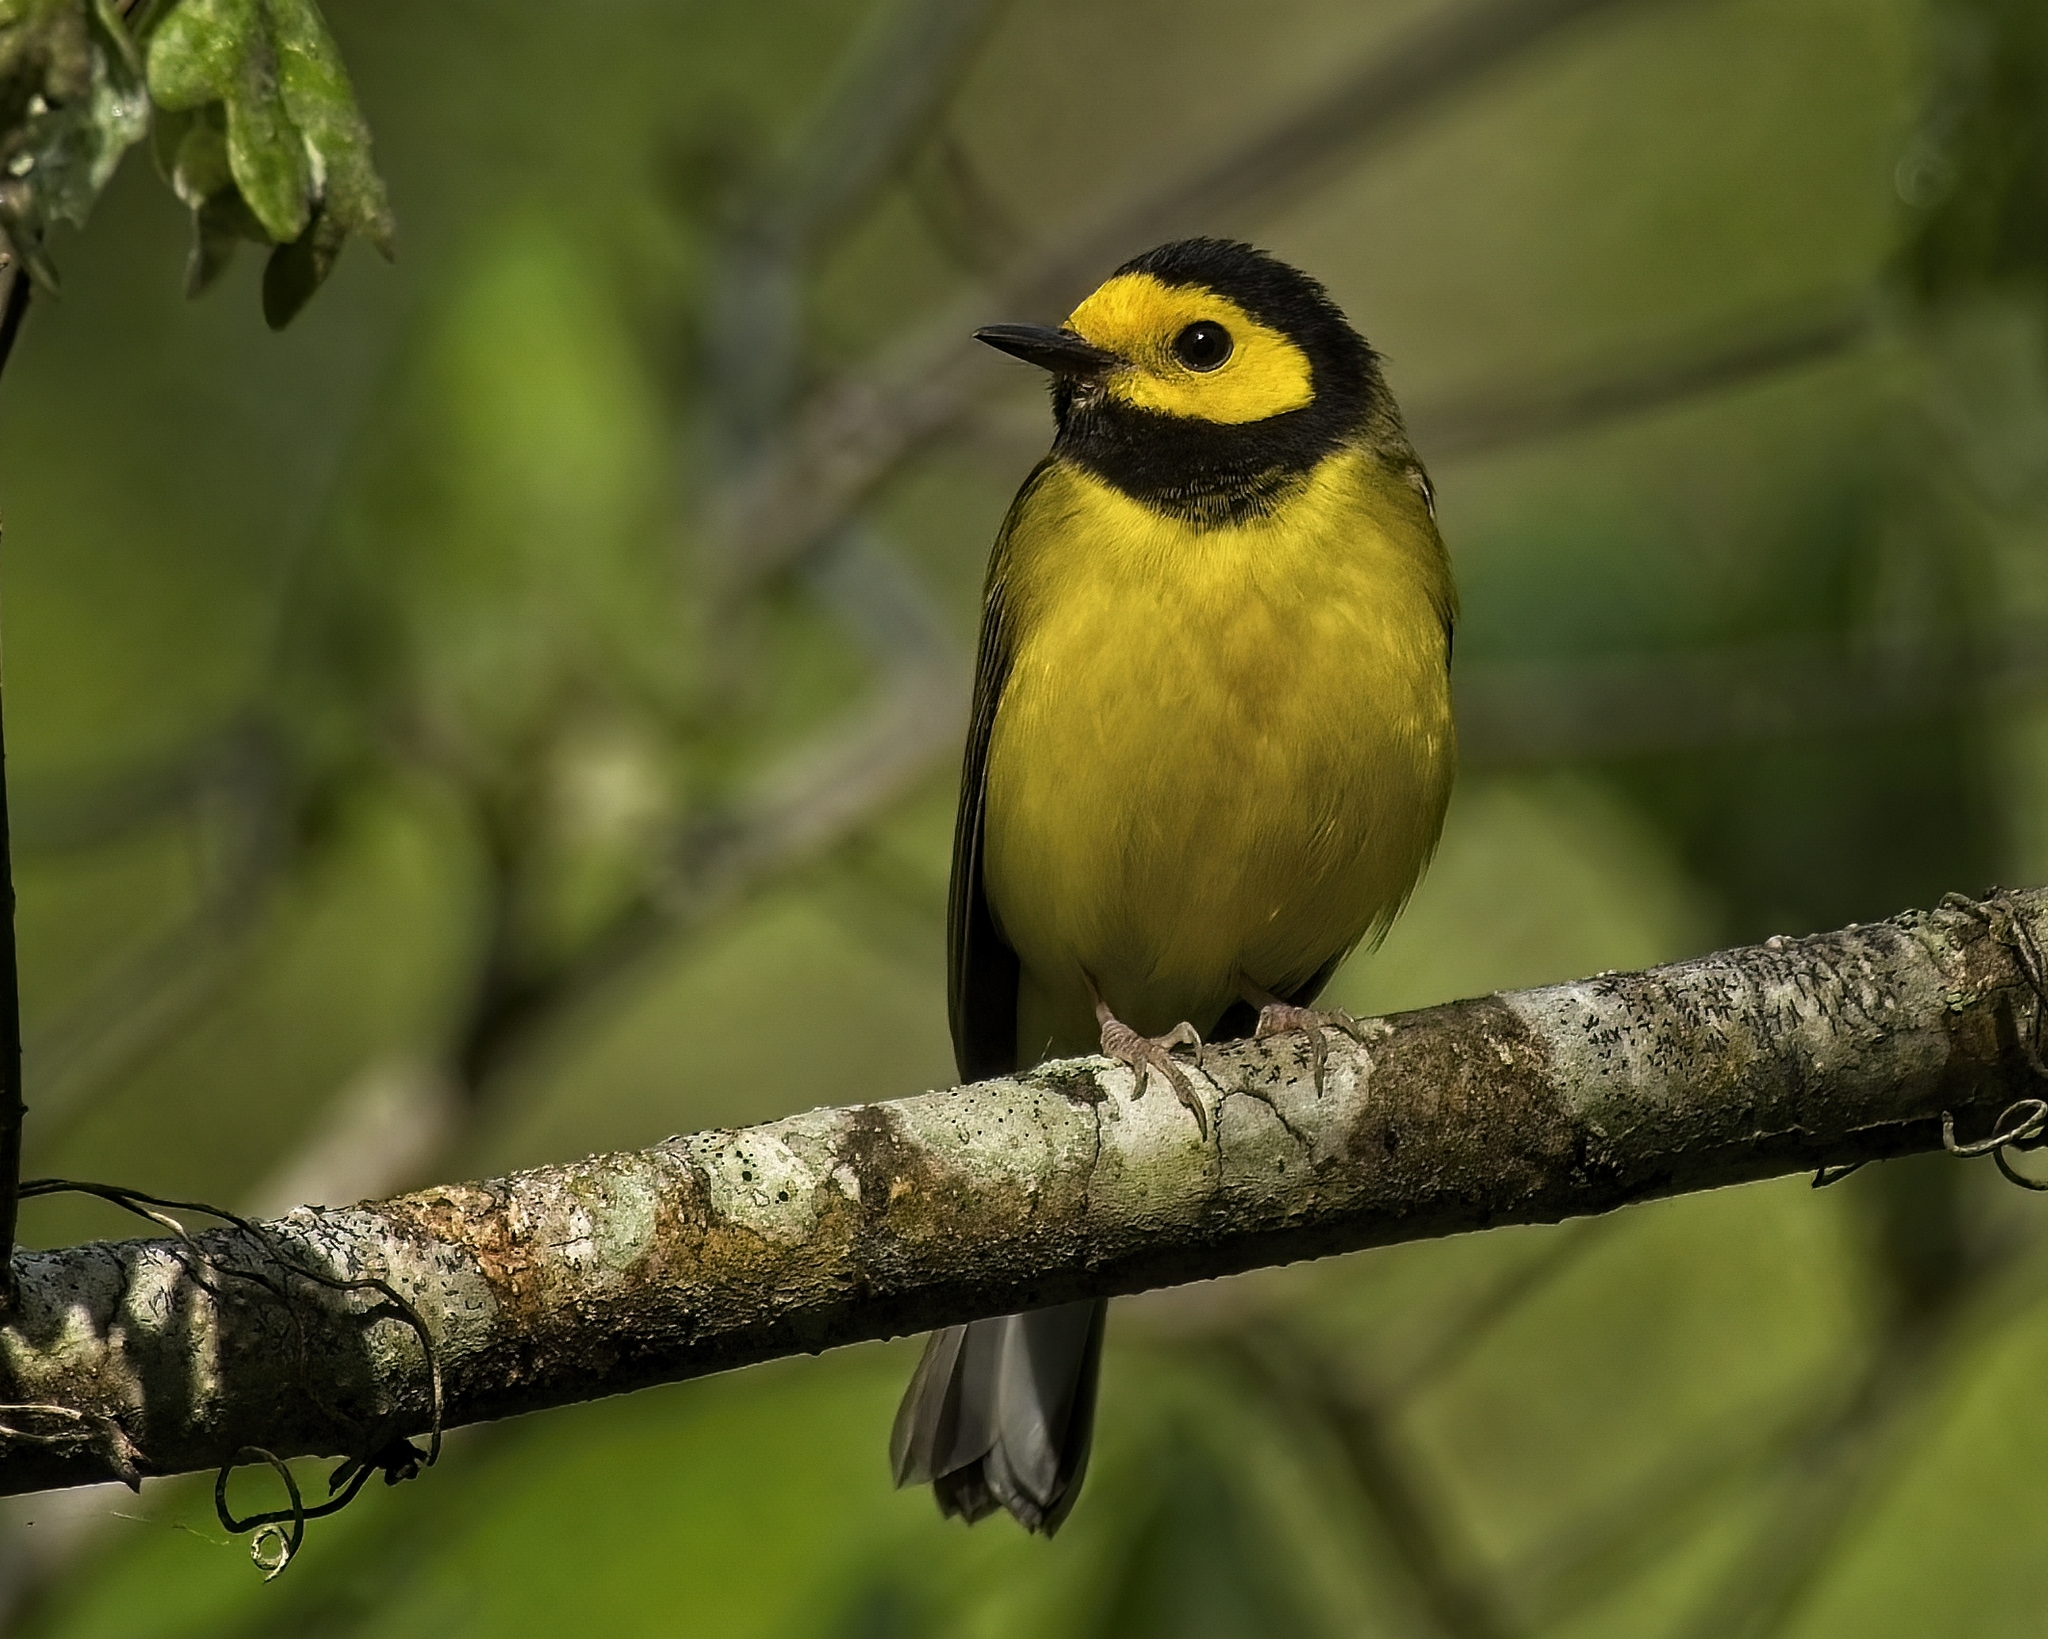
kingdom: Animalia
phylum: Chordata
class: Aves
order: Passeriformes
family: Parulidae
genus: Setophaga
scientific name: Setophaga citrina
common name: Hooded warbler
